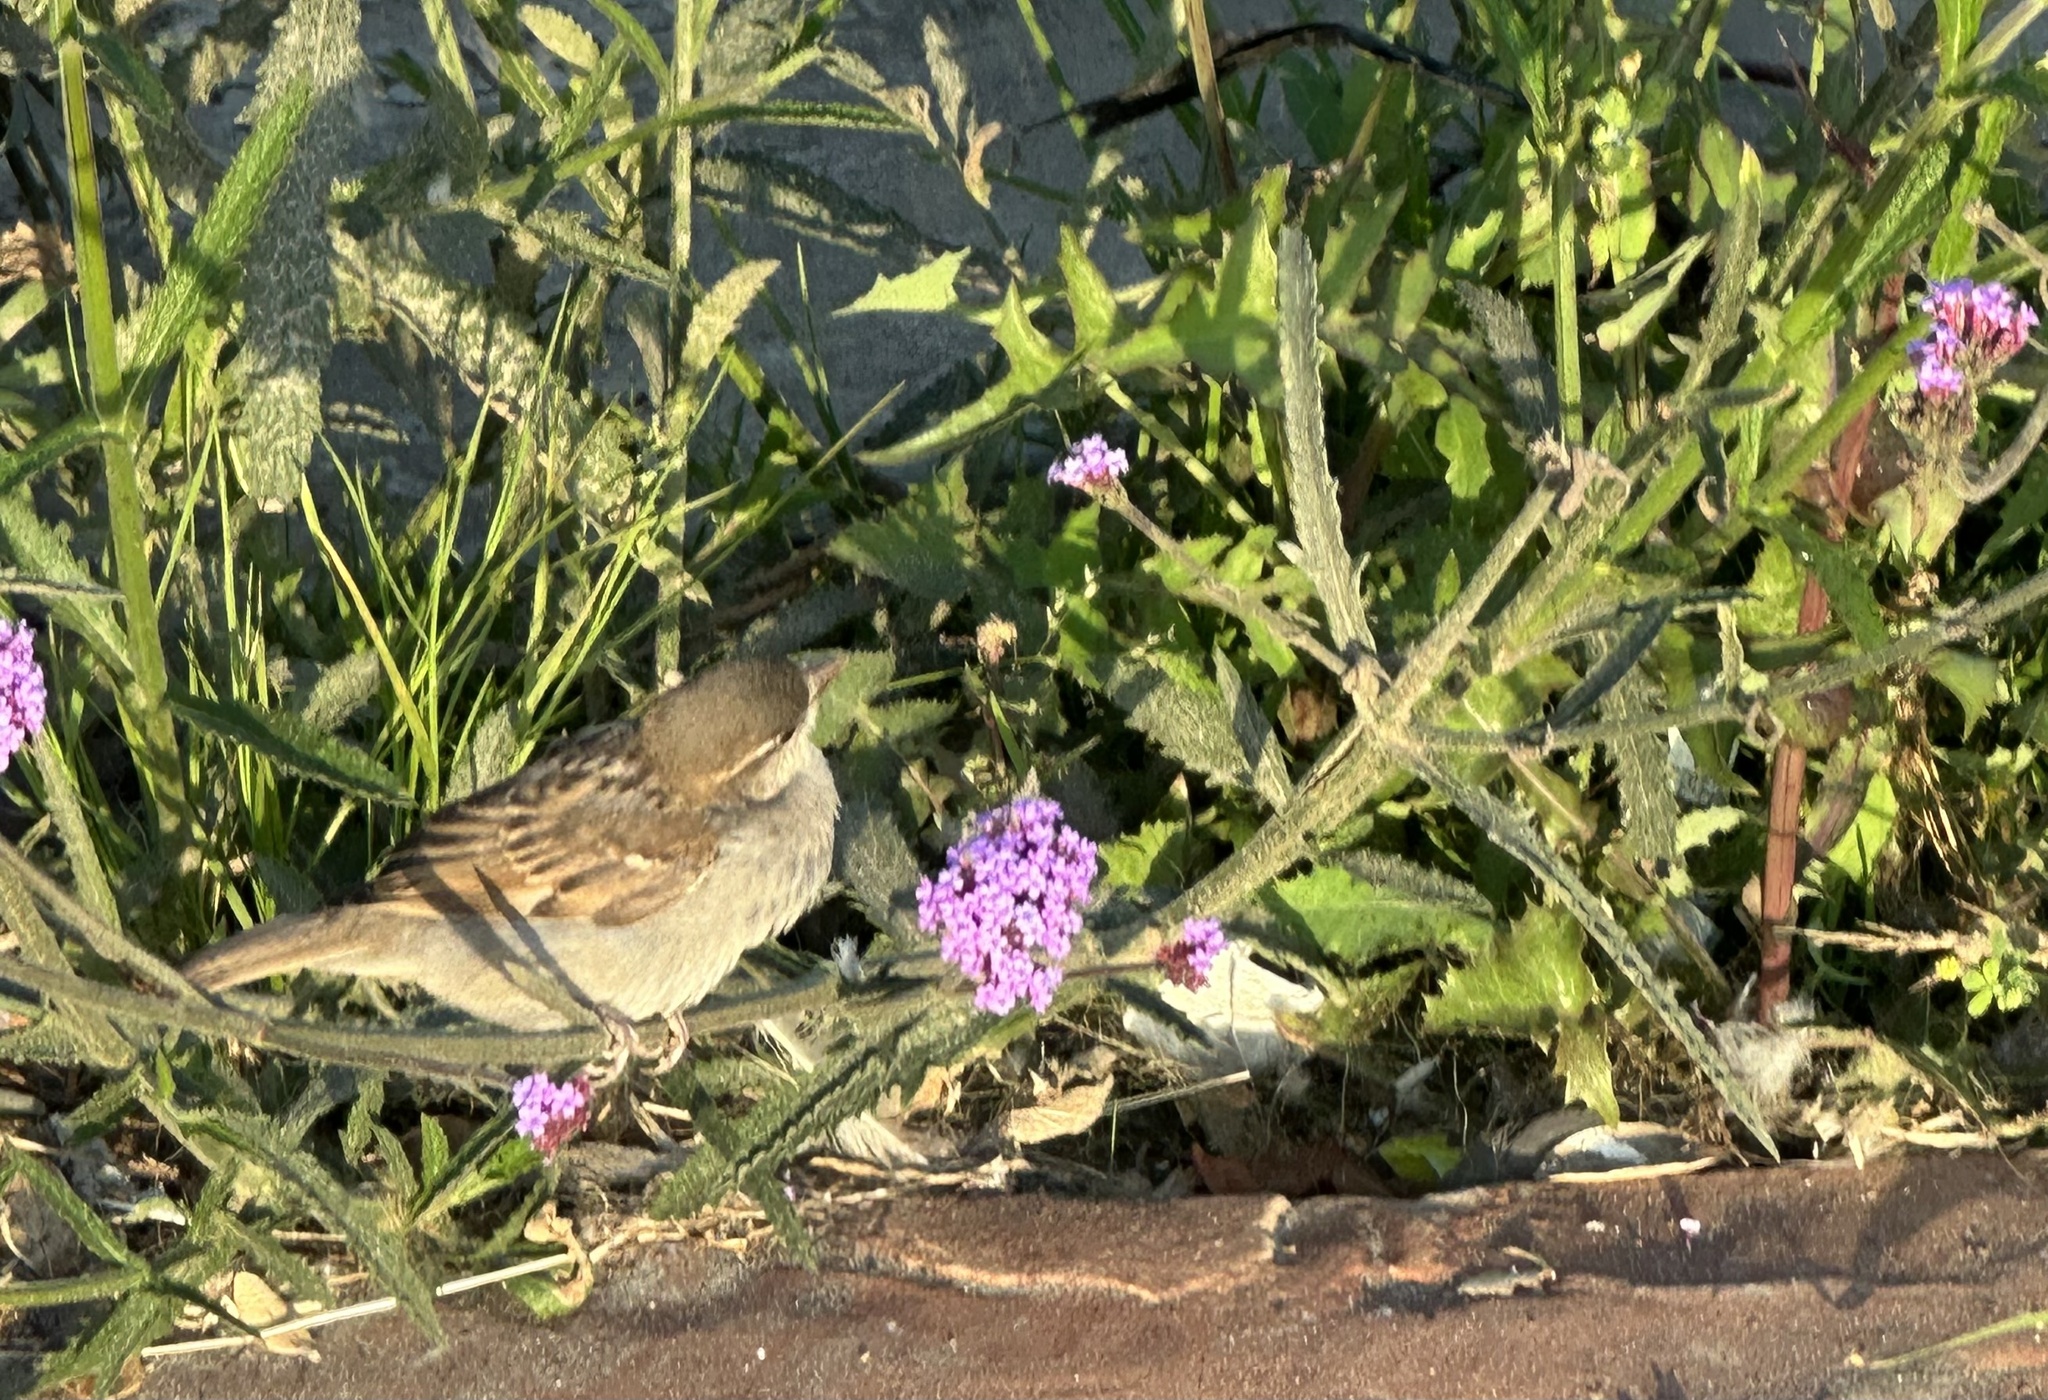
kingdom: Animalia
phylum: Chordata
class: Aves
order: Passeriformes
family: Passeridae
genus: Passer
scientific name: Passer domesticus
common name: House sparrow
